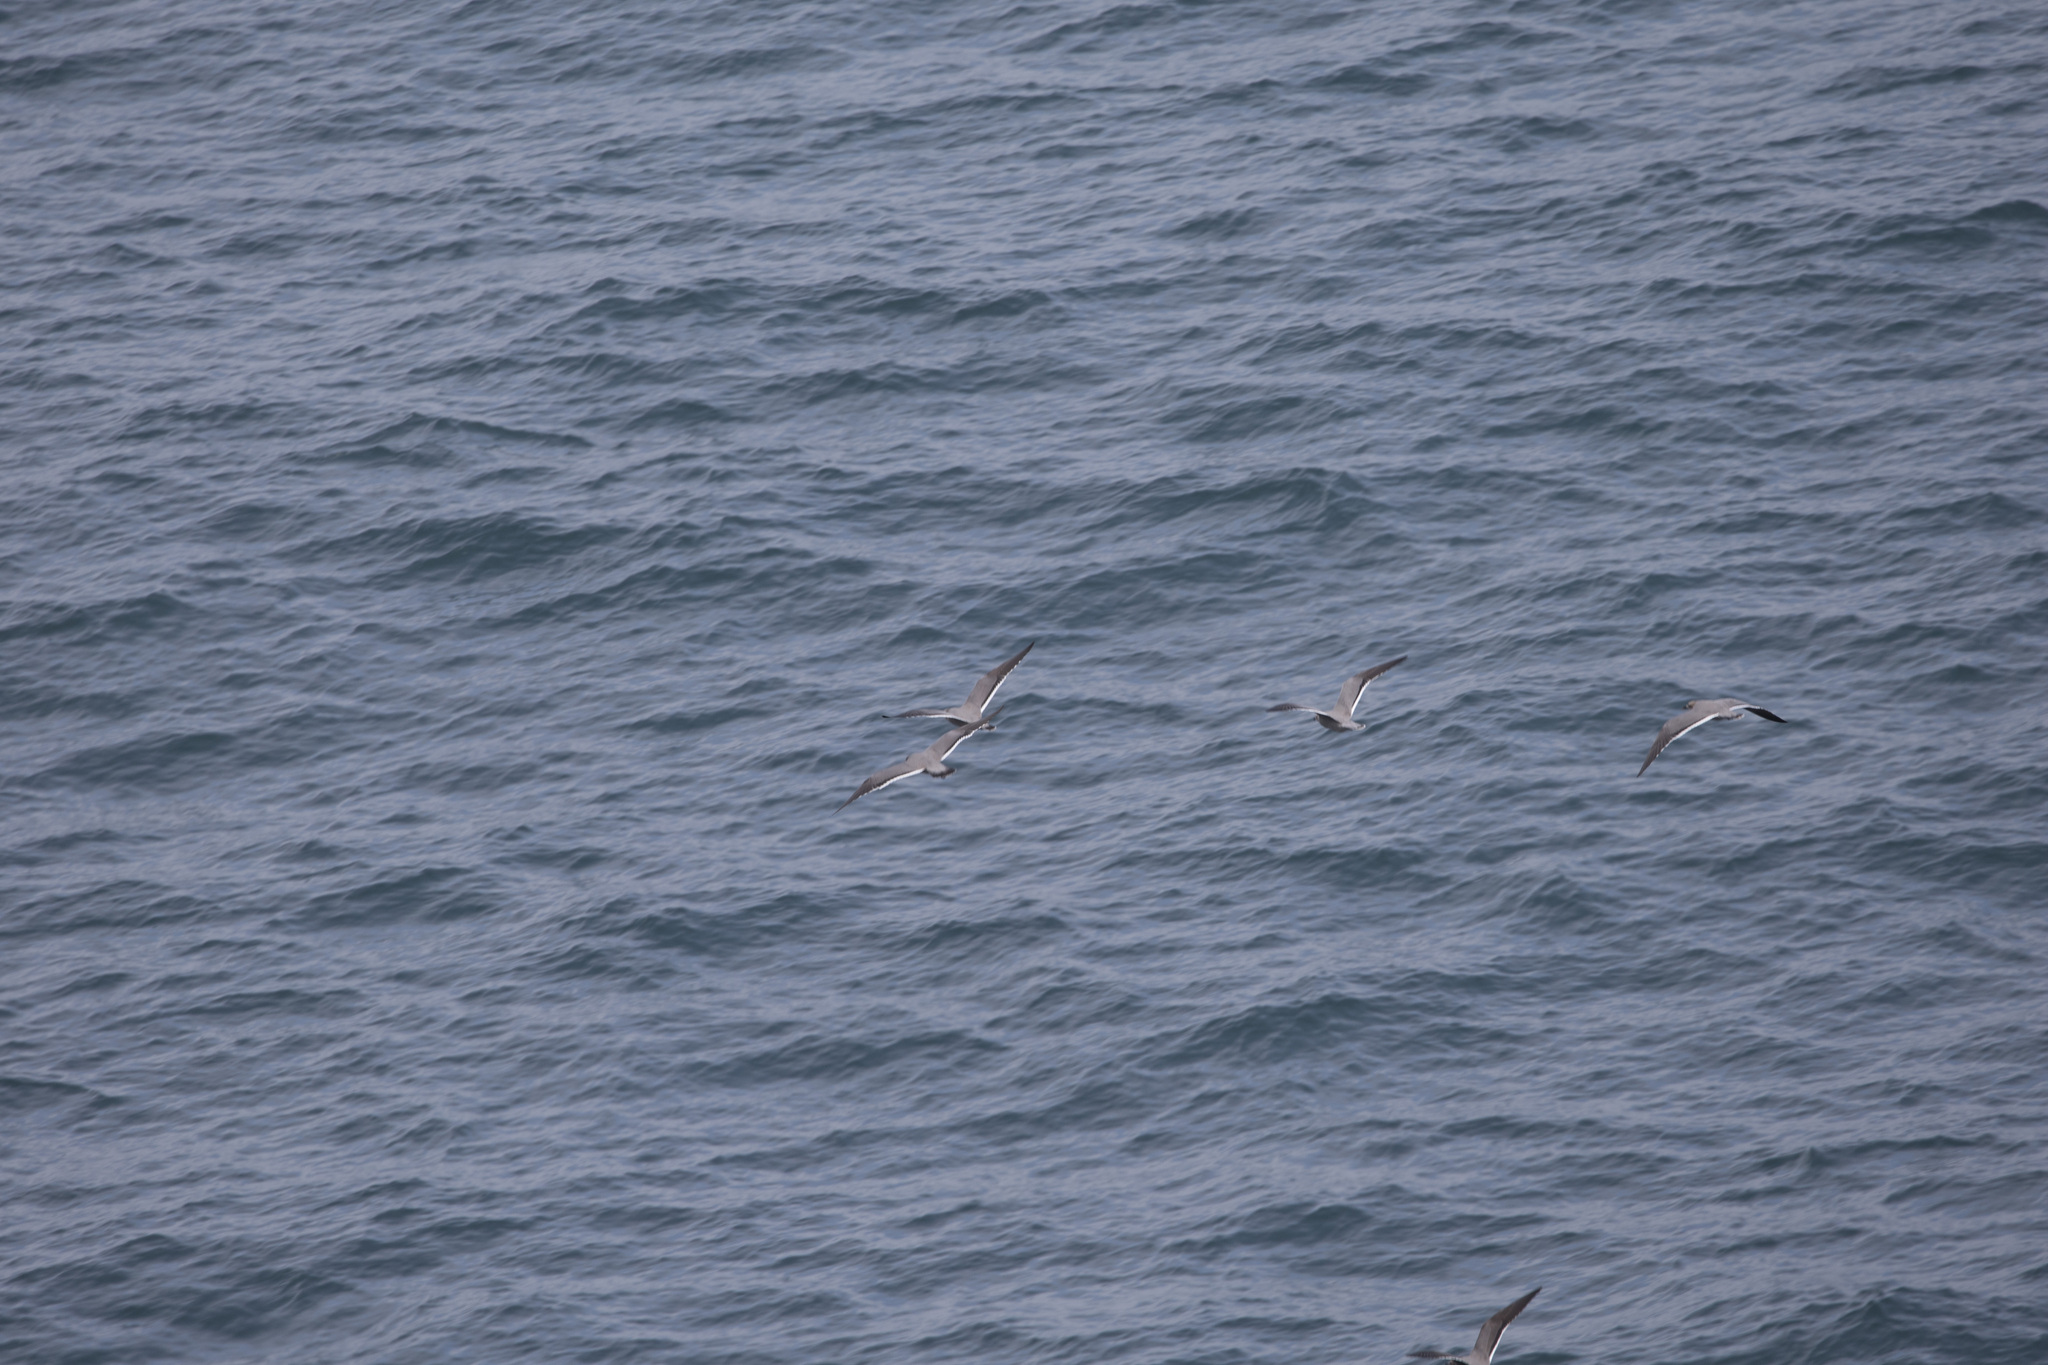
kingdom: Animalia
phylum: Chordata
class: Aves
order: Charadriiformes
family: Laridae
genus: Leucophaeus
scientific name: Leucophaeus modestus
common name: Gray gull
